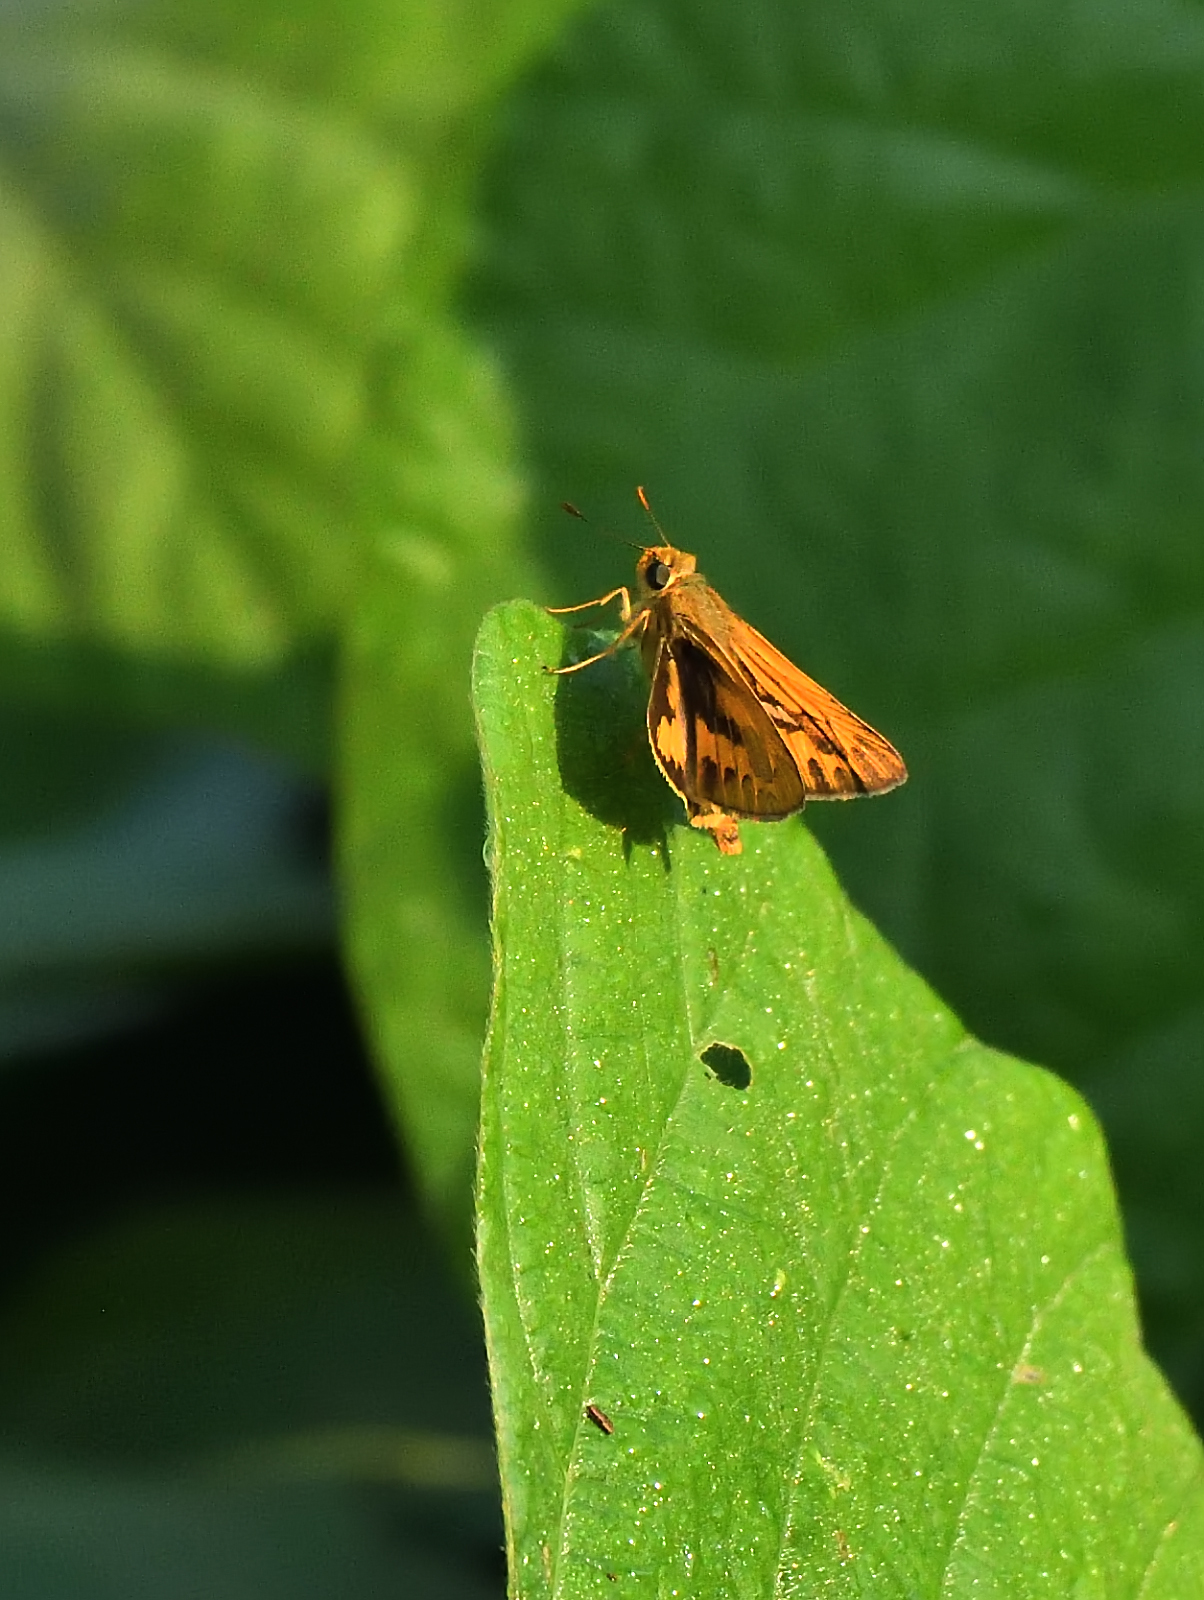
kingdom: Animalia
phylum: Arthropoda
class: Insecta
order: Lepidoptera
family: Hesperiidae
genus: Telicota
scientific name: Telicota colon
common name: Pale palm dart
